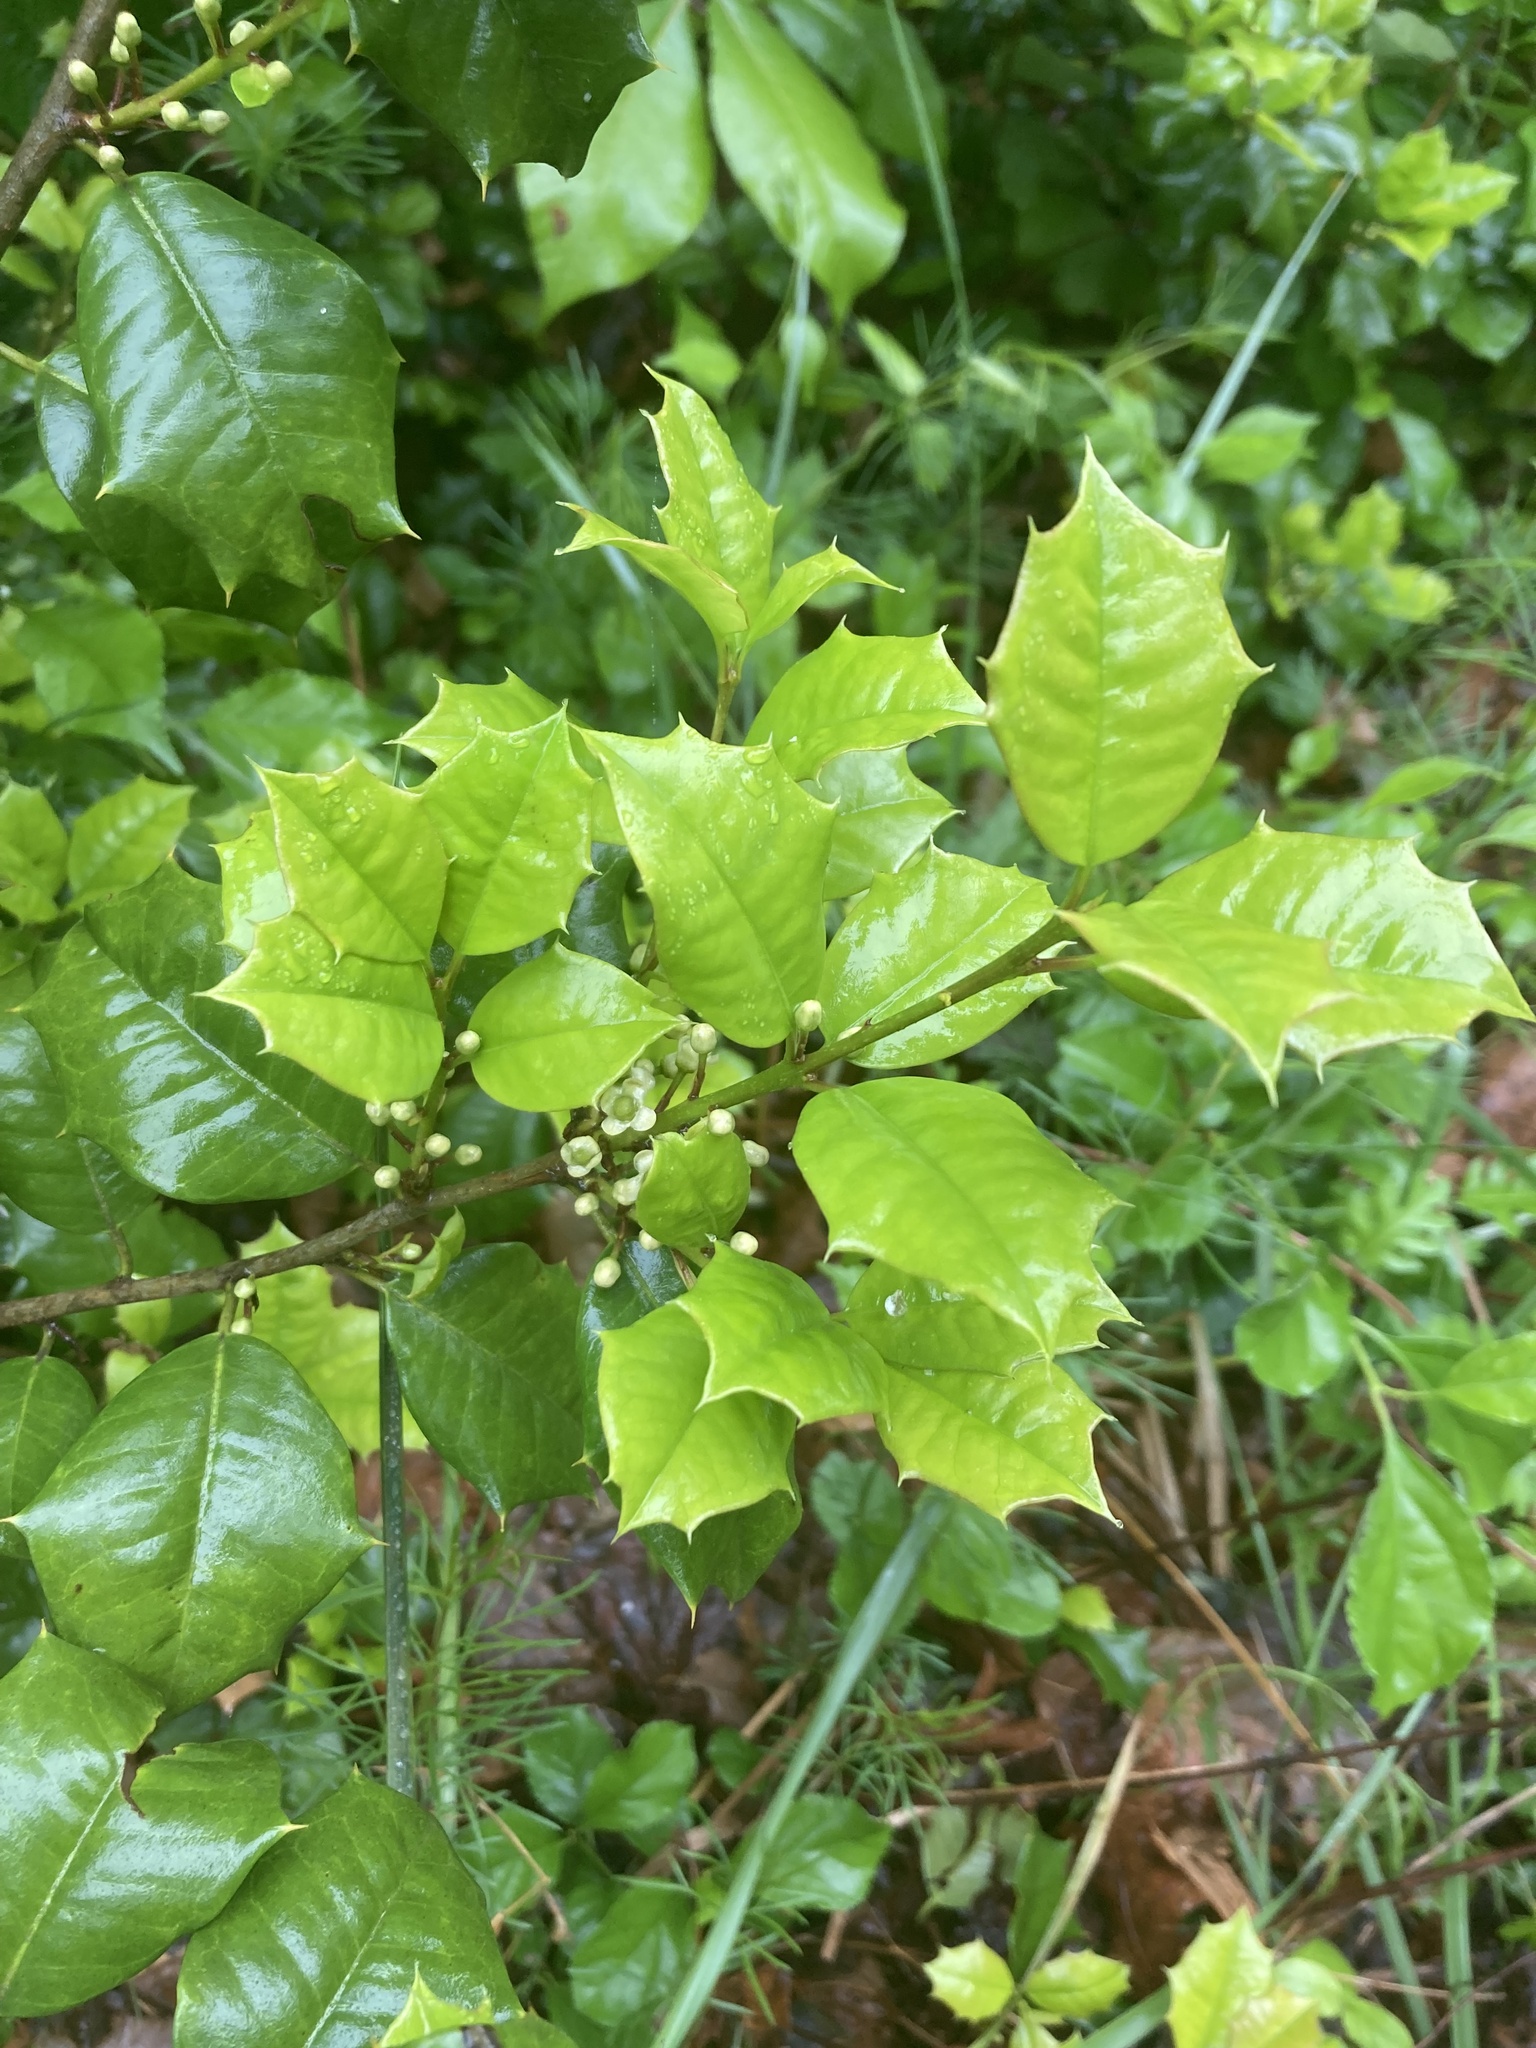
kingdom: Plantae
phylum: Tracheophyta
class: Magnoliopsida
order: Aquifoliales
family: Aquifoliaceae
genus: Ilex
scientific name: Ilex opaca
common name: American holly
